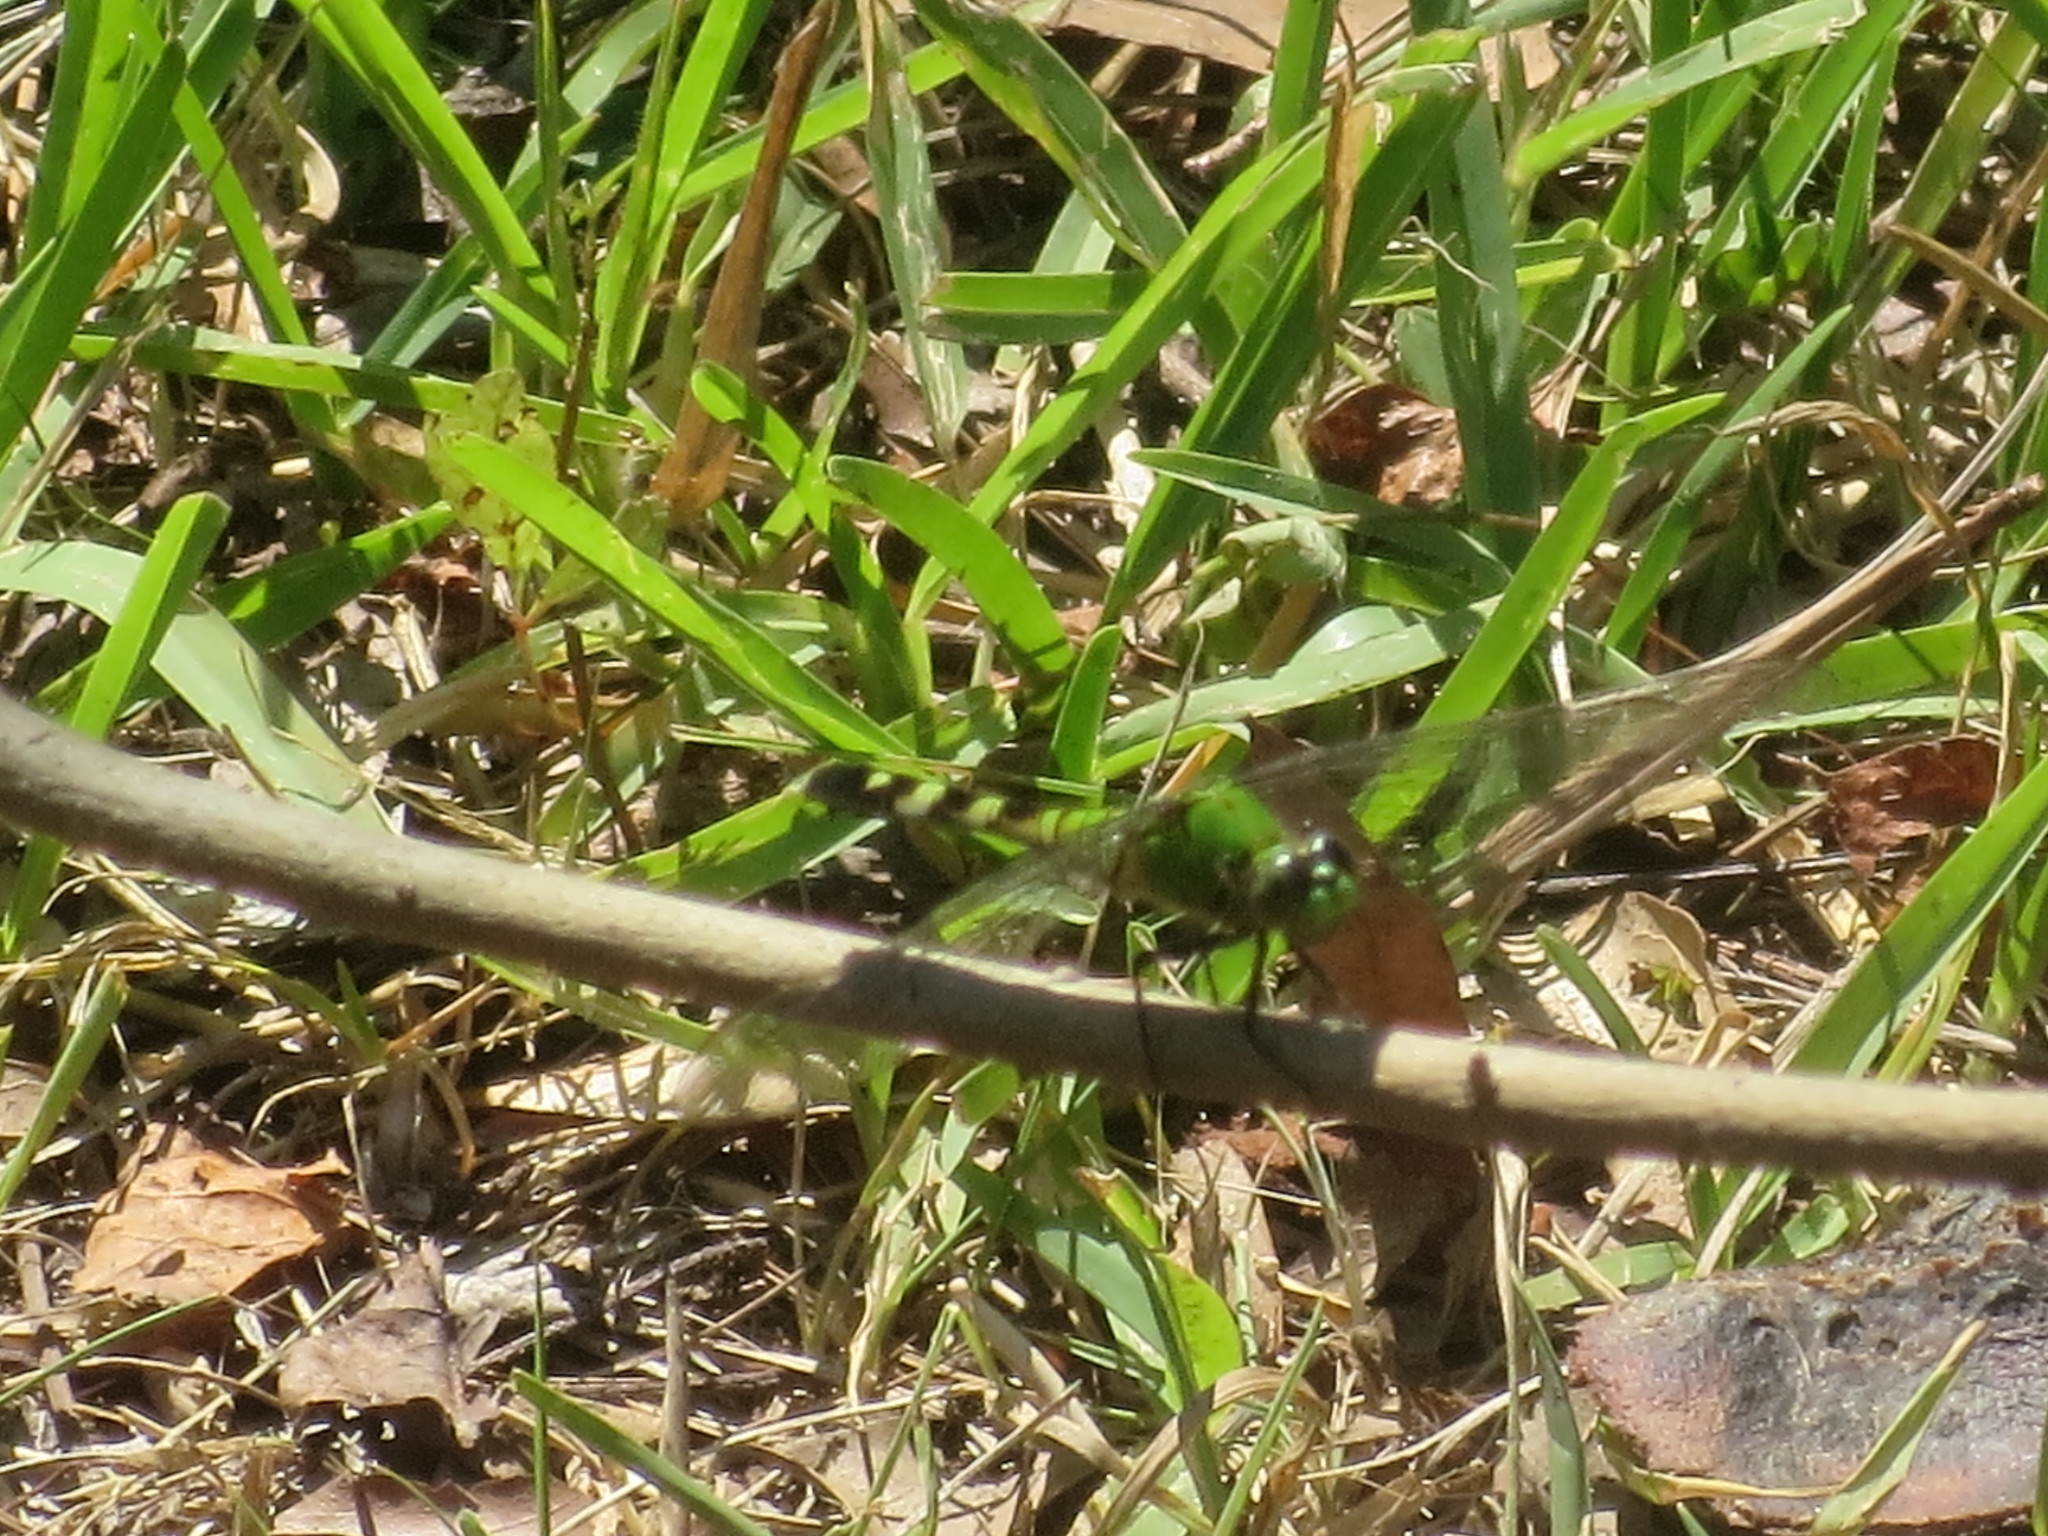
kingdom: Animalia
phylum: Arthropoda
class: Insecta
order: Odonata
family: Libellulidae
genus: Erythemis
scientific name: Erythemis simplicicollis
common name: Eastern pondhawk
